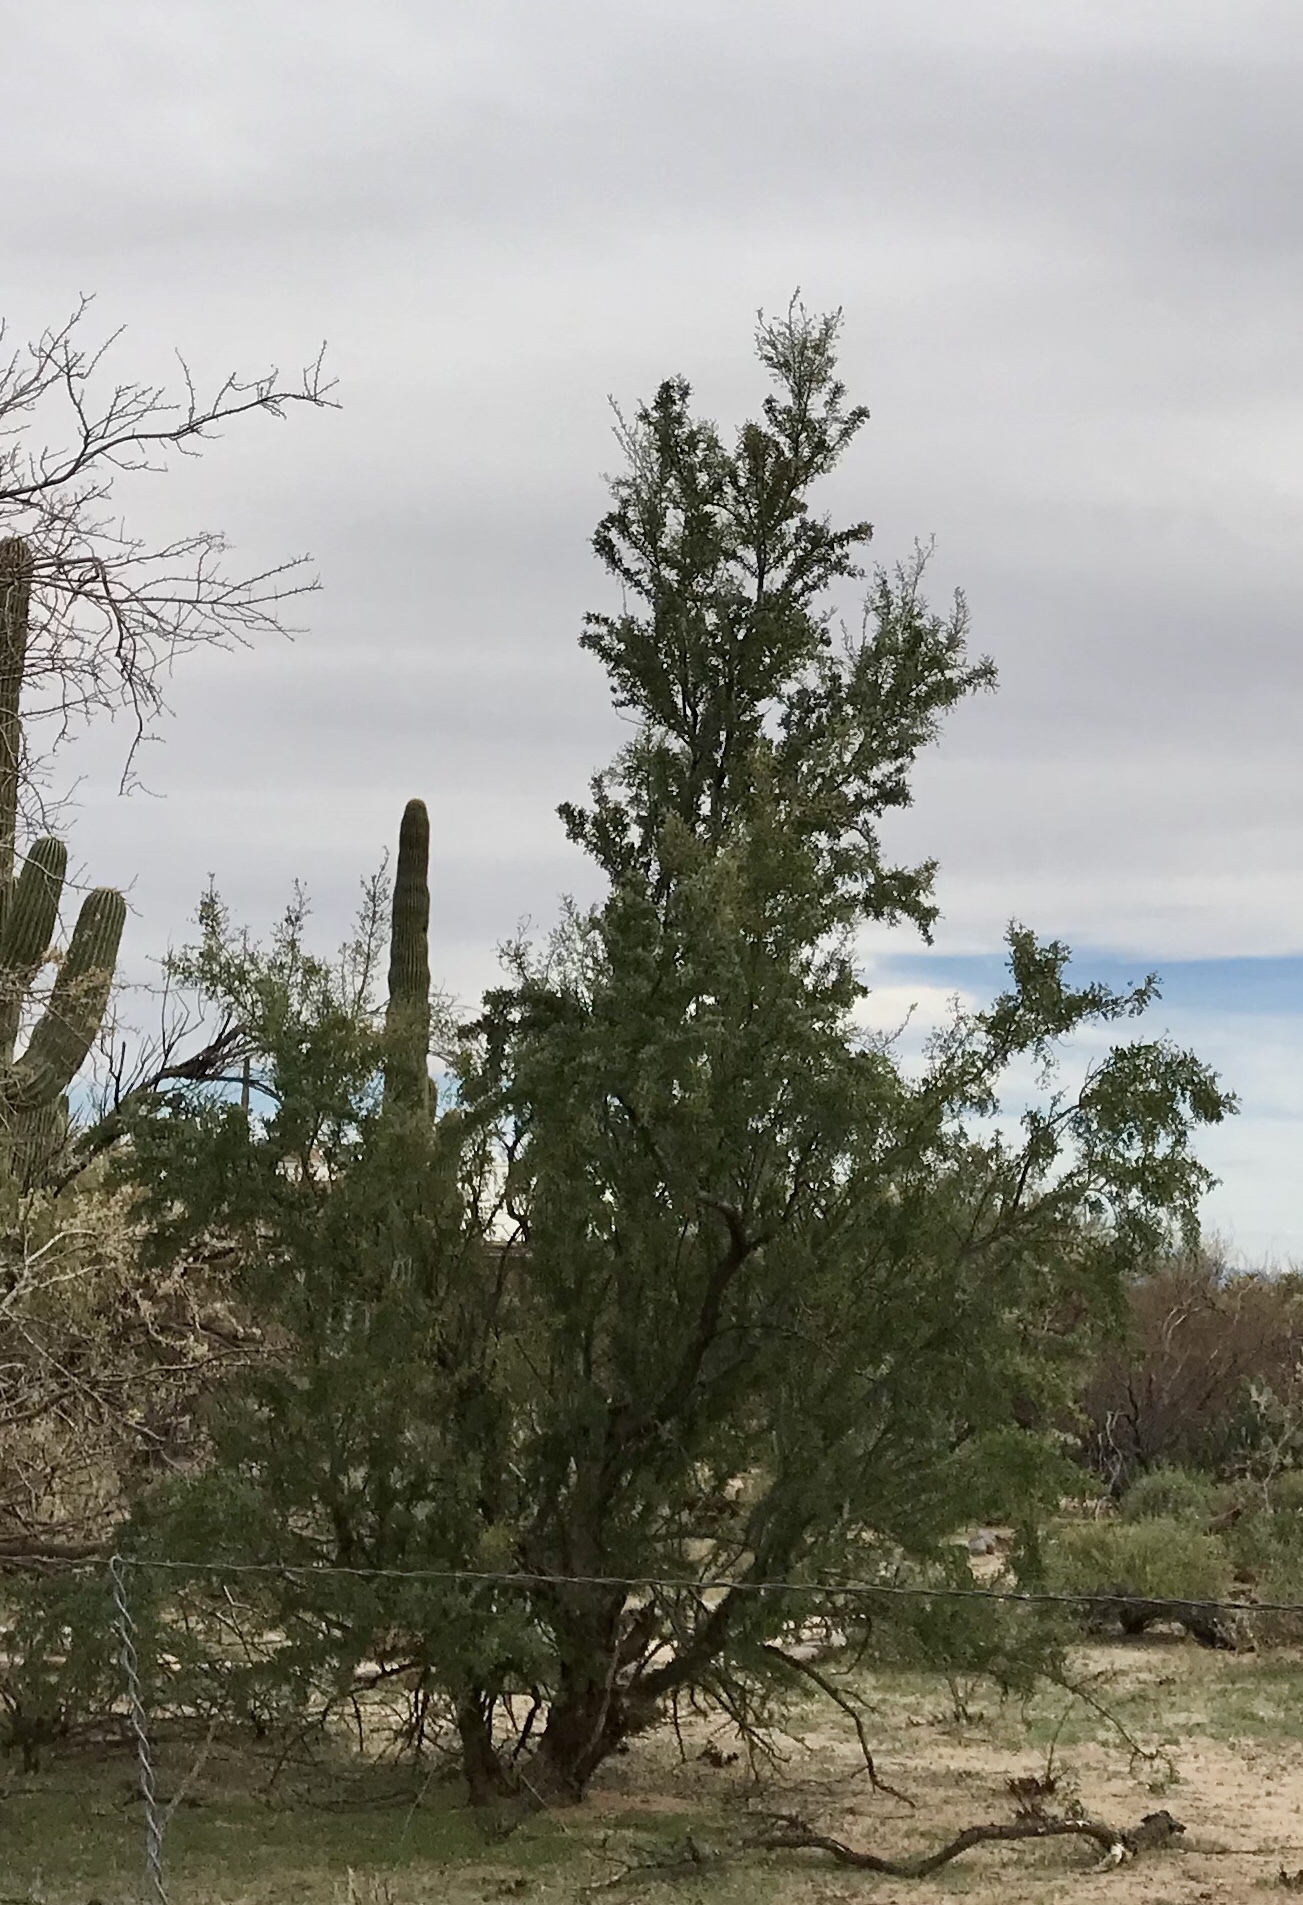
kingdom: Plantae
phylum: Tracheophyta
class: Magnoliopsida
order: Fabales
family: Fabaceae
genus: Olneya
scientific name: Olneya tesota
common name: Desert ironwood
